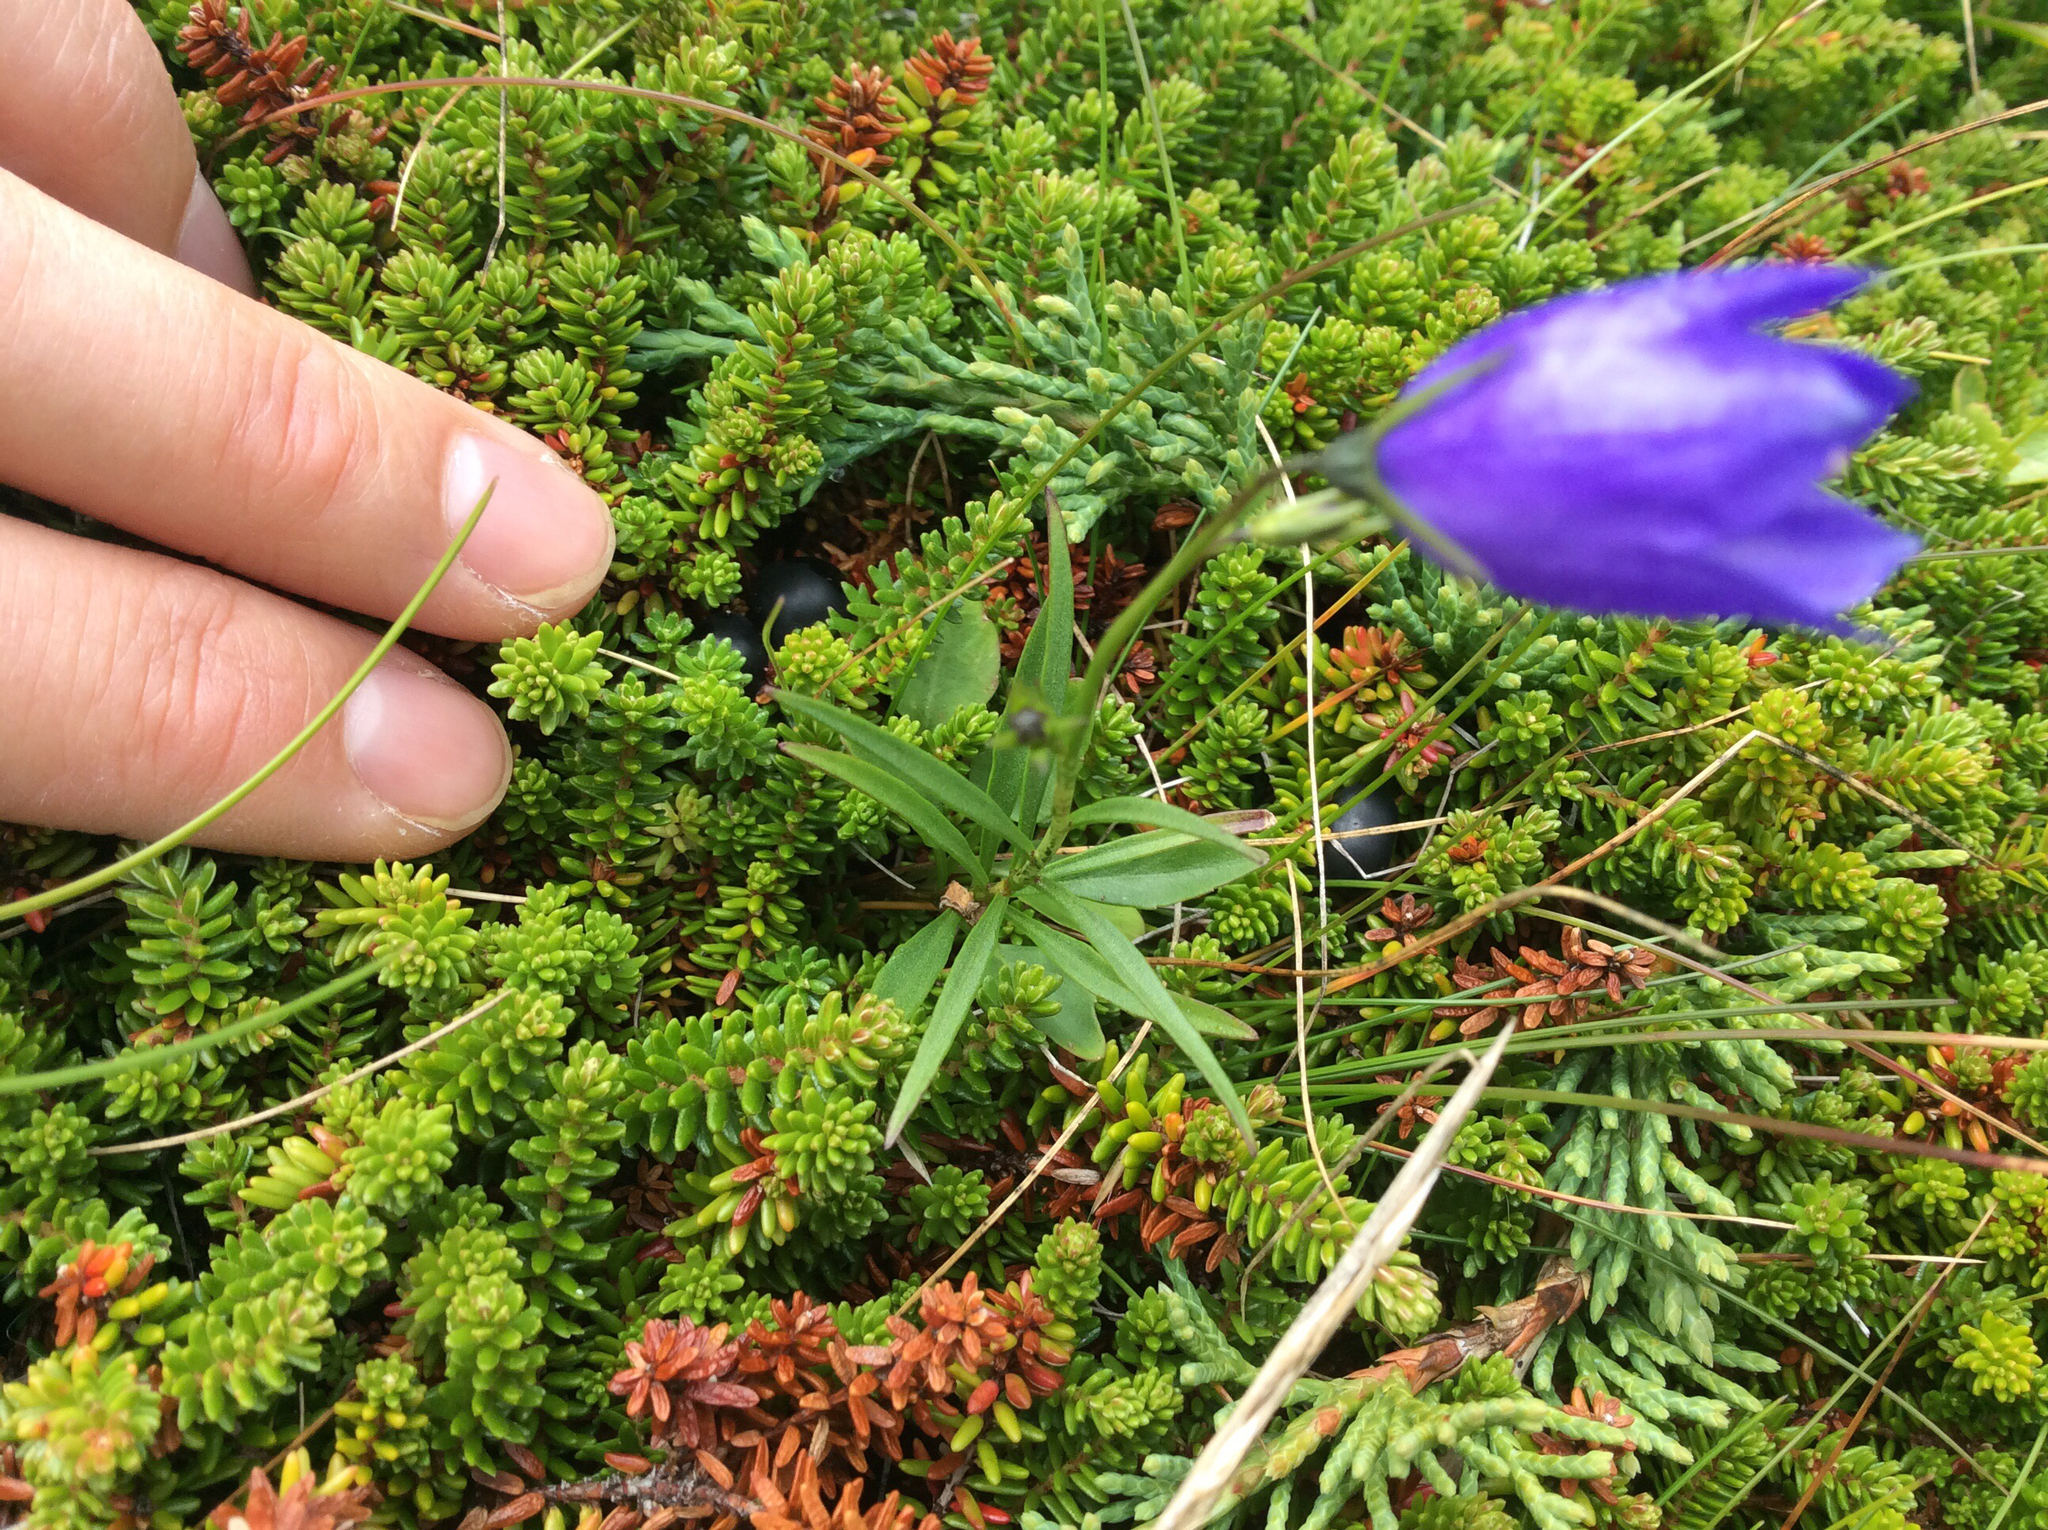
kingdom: Plantae
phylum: Tracheophyta
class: Magnoliopsida
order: Asterales
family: Campanulaceae
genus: Campanula
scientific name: Campanula giesekiana
